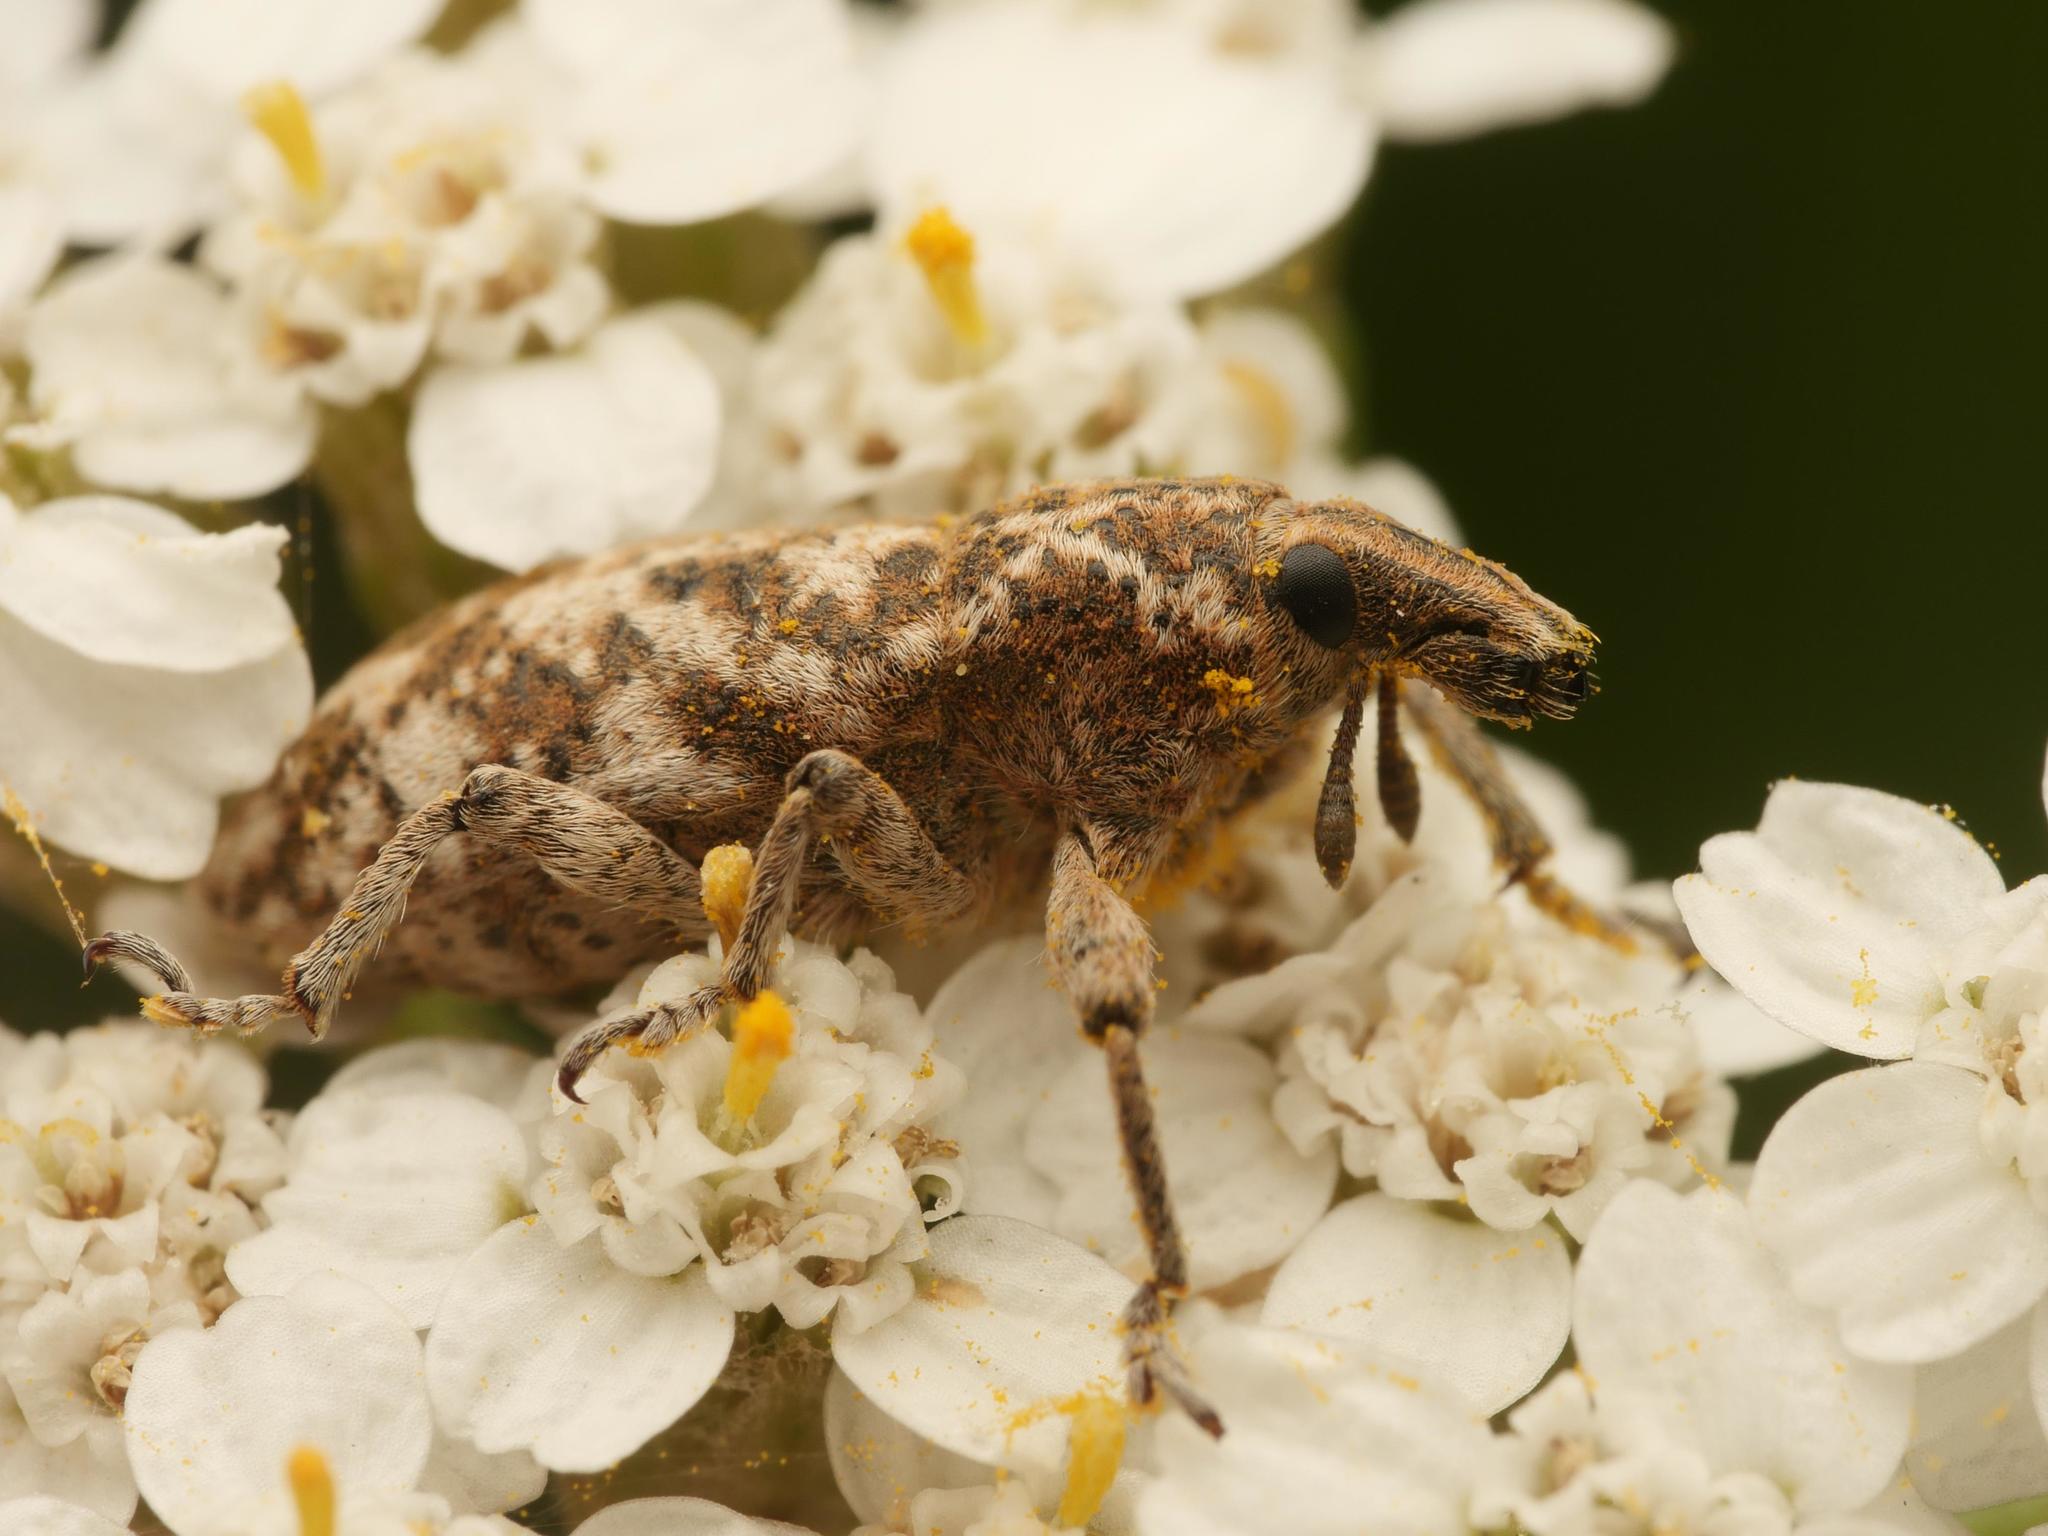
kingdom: Animalia
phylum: Arthropoda
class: Insecta
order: Coleoptera
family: Curculionidae
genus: Cyphocleonus
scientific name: Cyphocleonus dealbatus
